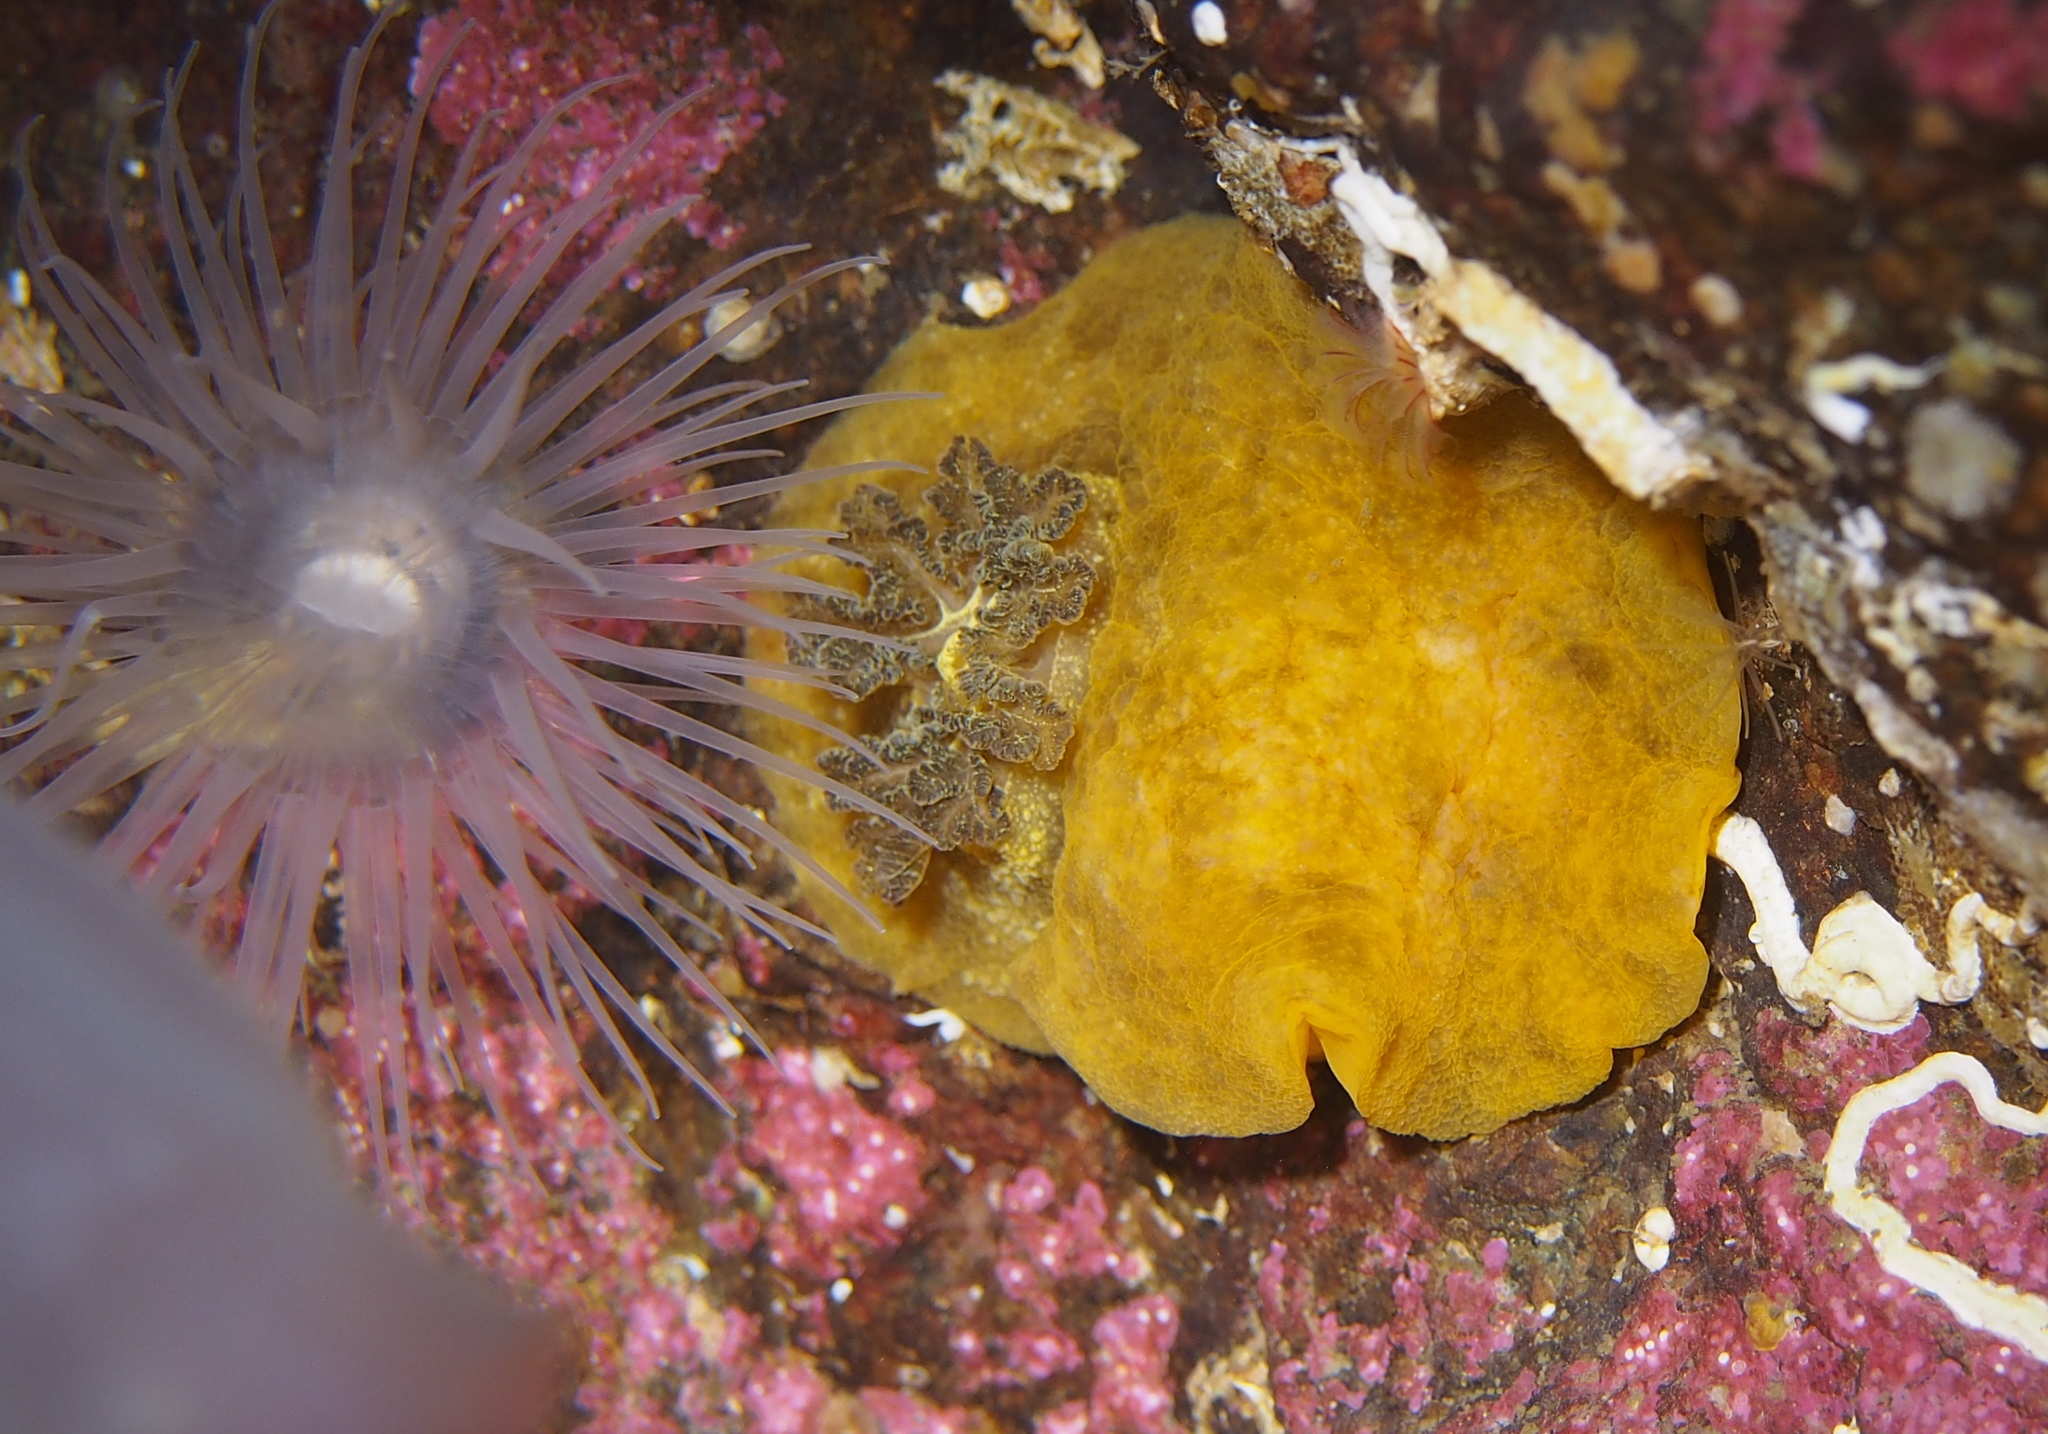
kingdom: Animalia
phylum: Mollusca
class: Gastropoda
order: Nudibranchia
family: Dorididae
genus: Doris
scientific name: Doris pseudoargus
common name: Sea lemon
